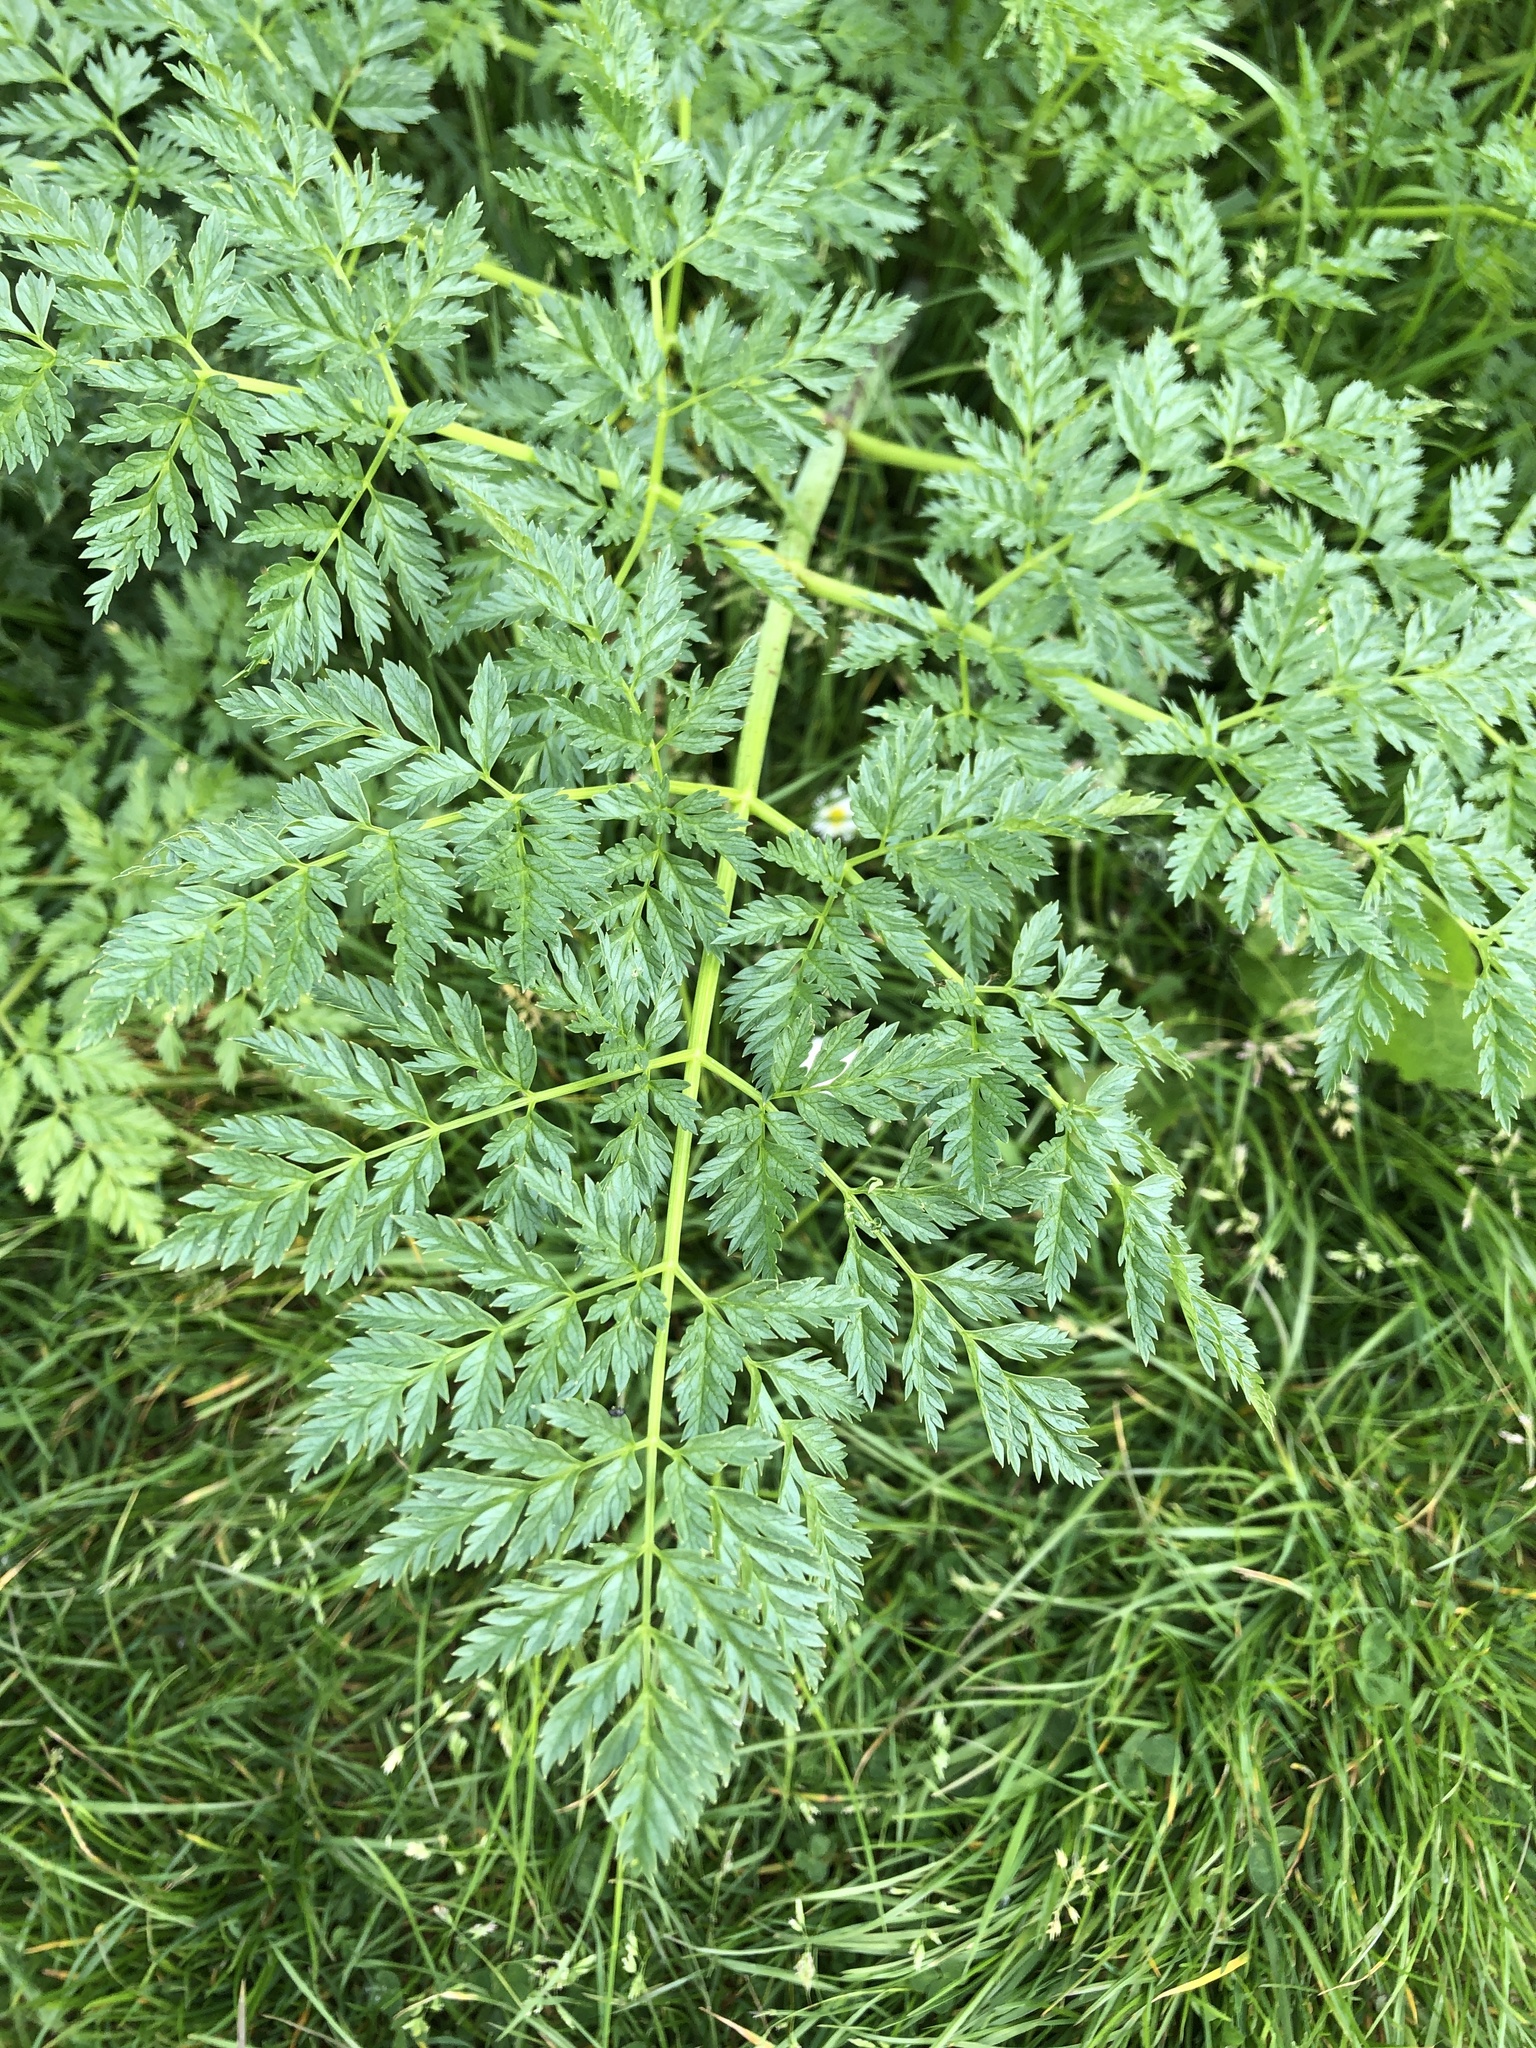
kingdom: Plantae
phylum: Tracheophyta
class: Magnoliopsida
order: Apiales
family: Apiaceae
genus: Conium
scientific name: Conium maculatum
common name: Hemlock
